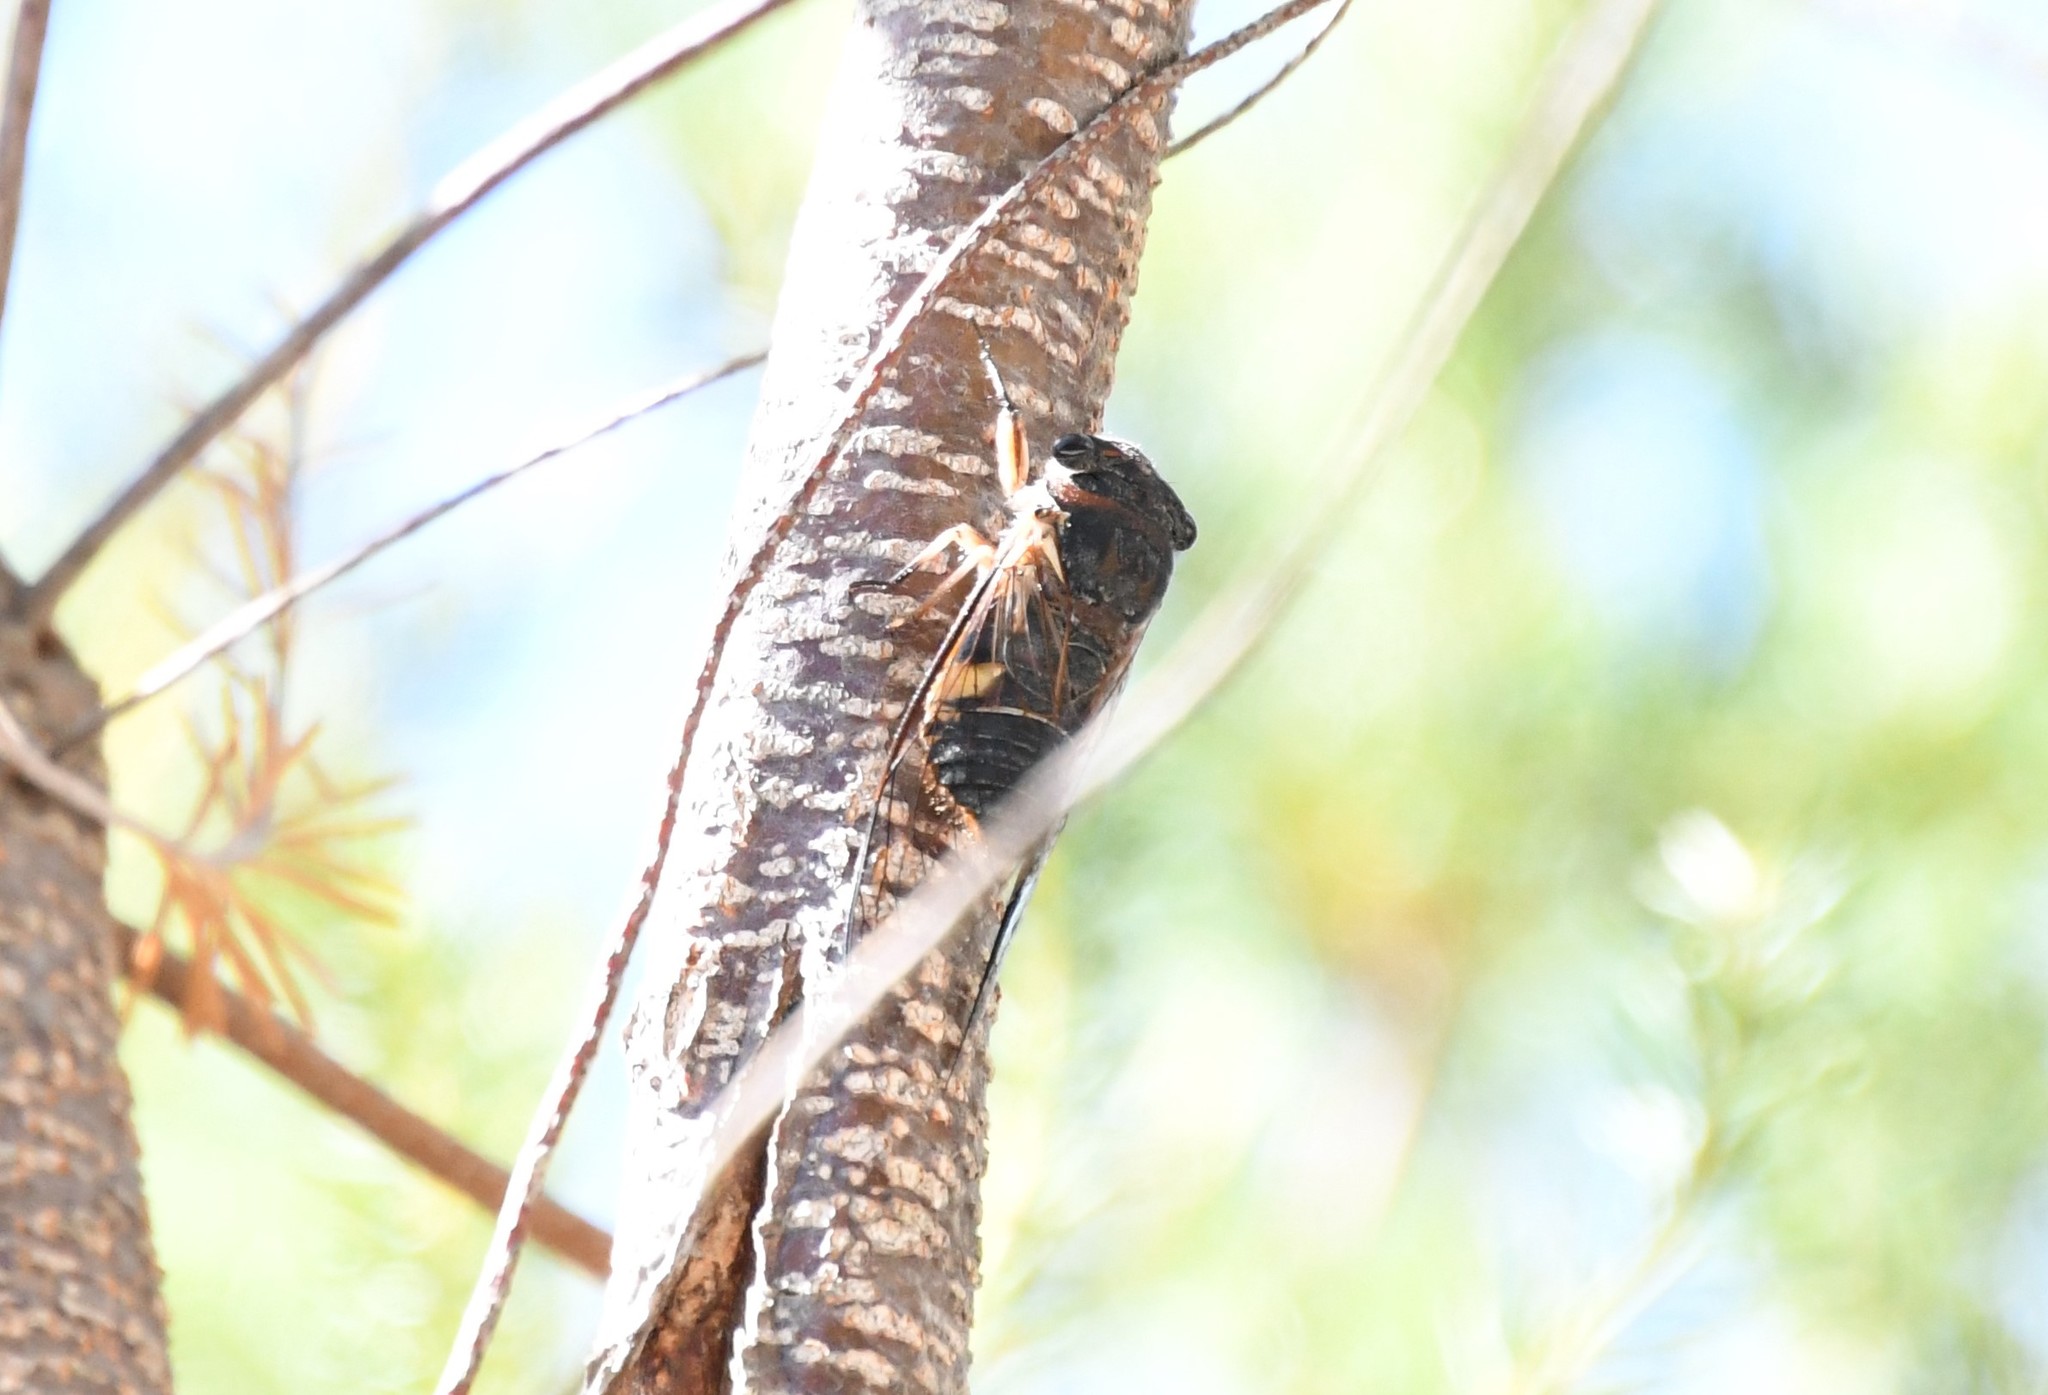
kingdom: Animalia
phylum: Arthropoda
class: Insecta
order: Hemiptera
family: Cicadidae
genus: Psaltoda
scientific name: Psaltoda harrisii
